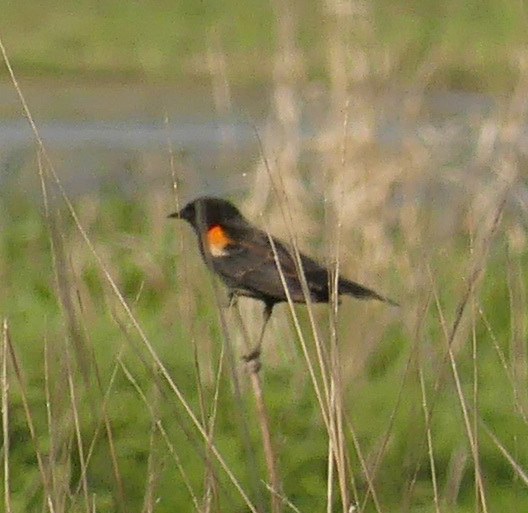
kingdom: Animalia
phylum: Chordata
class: Aves
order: Passeriformes
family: Icteridae
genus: Agelaius
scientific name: Agelaius phoeniceus
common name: Red-winged blackbird
